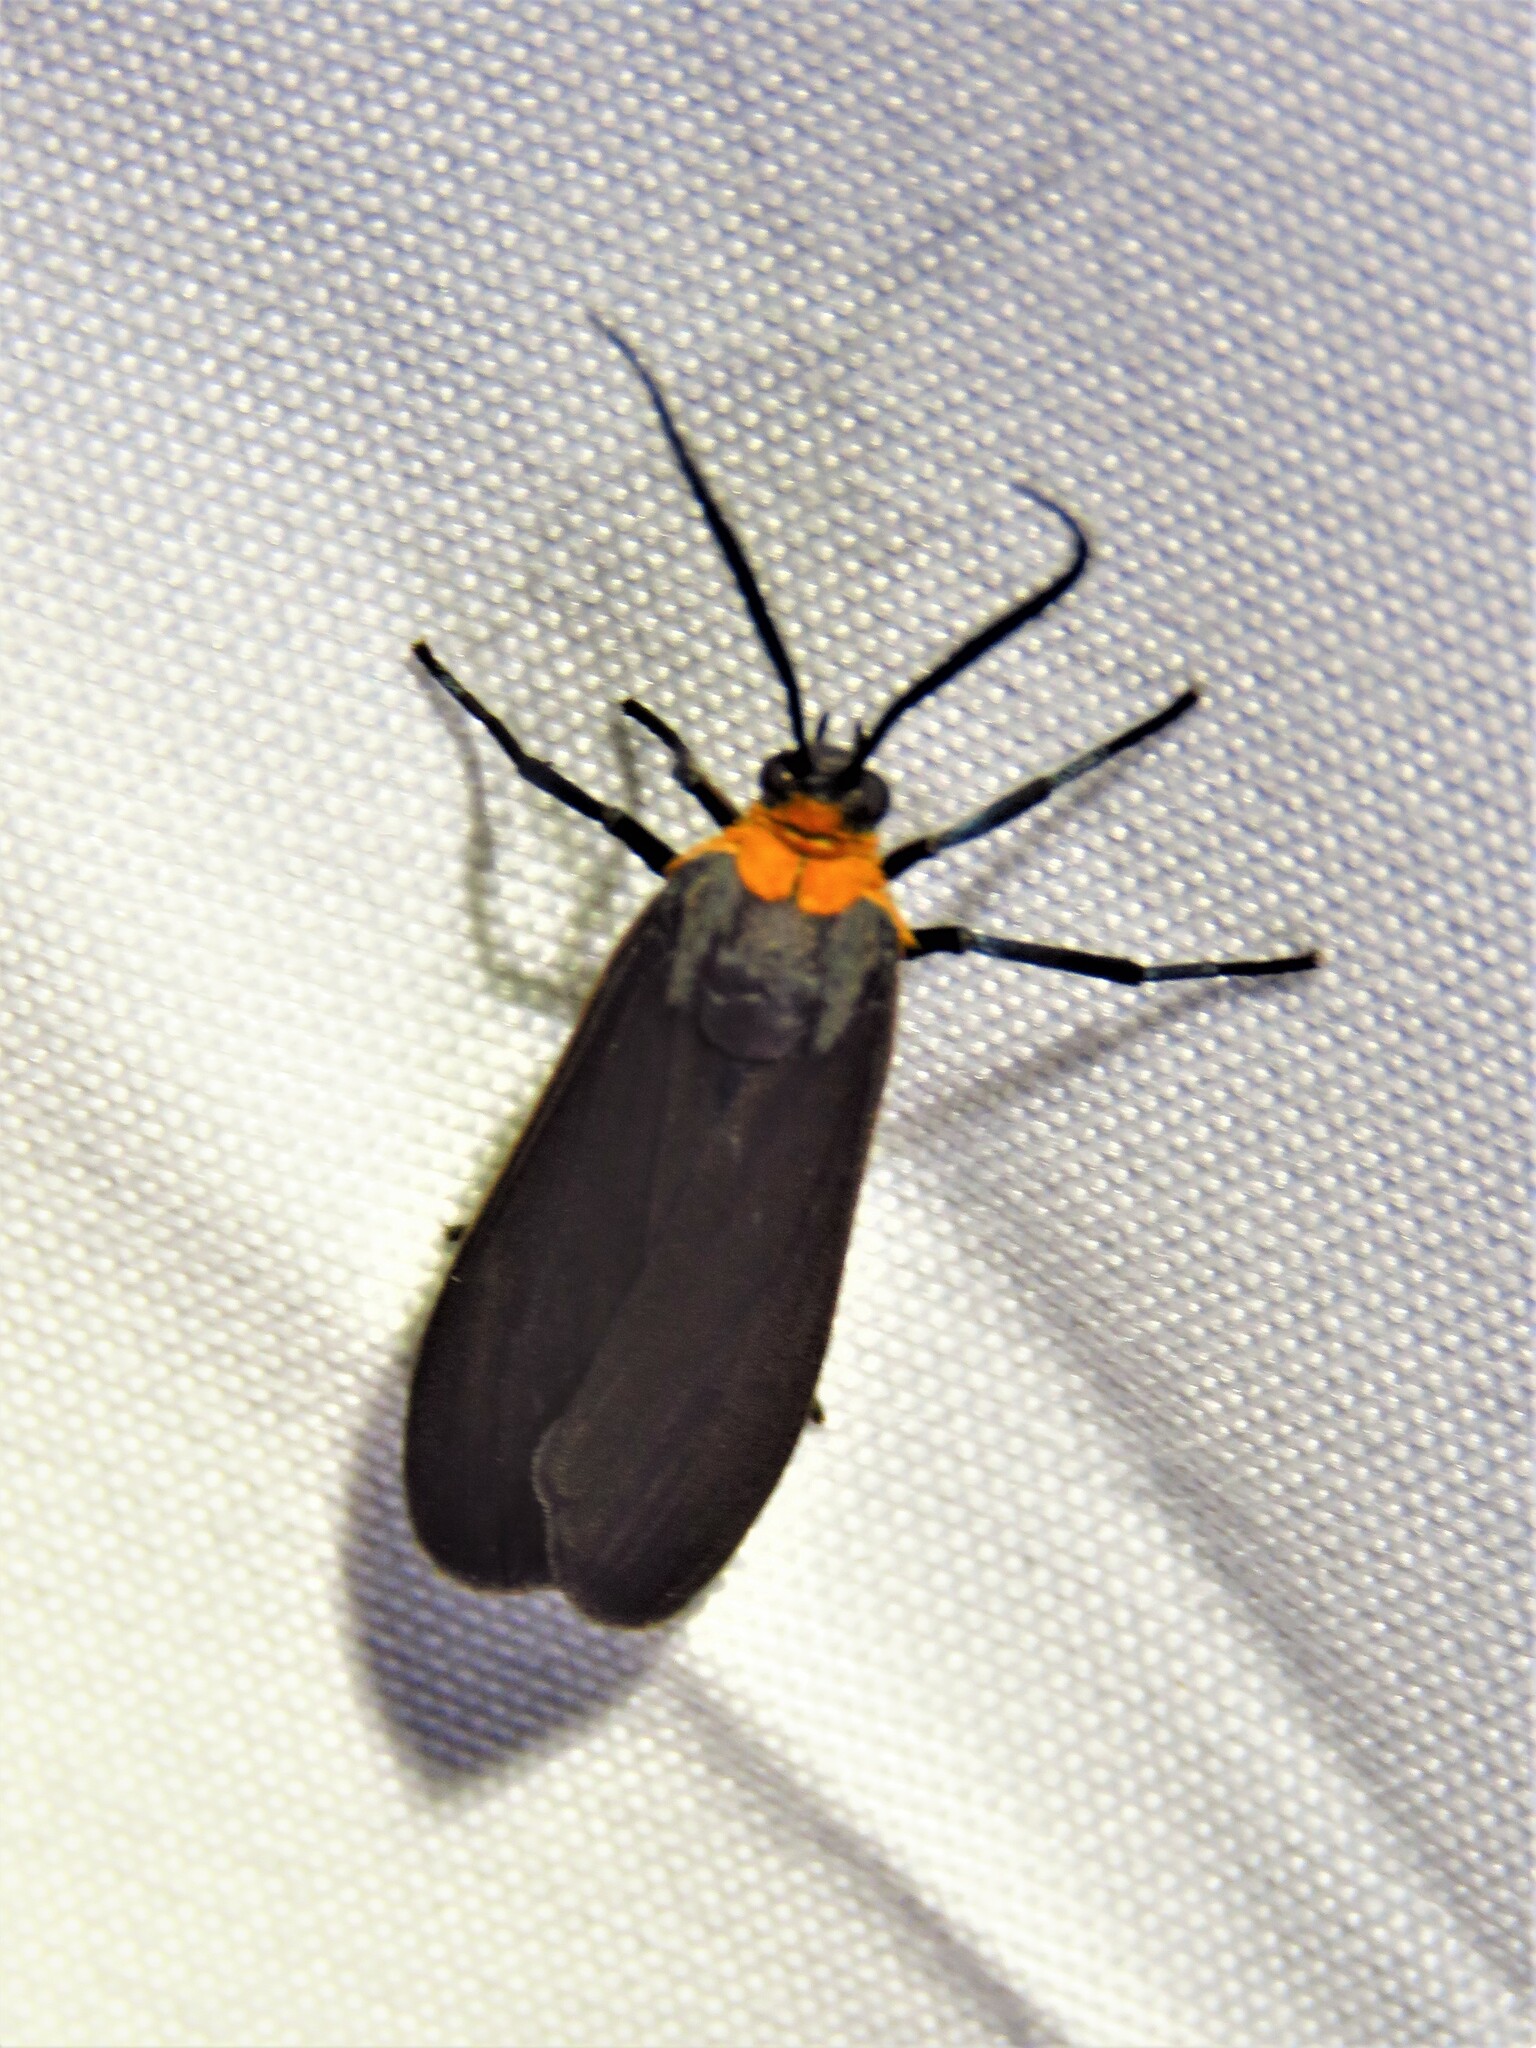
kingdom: Animalia
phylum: Arthropoda
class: Insecta
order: Lepidoptera
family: Erebidae
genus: Cisseps
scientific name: Cisseps fulvicollis
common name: Yellow-collared scape moth
